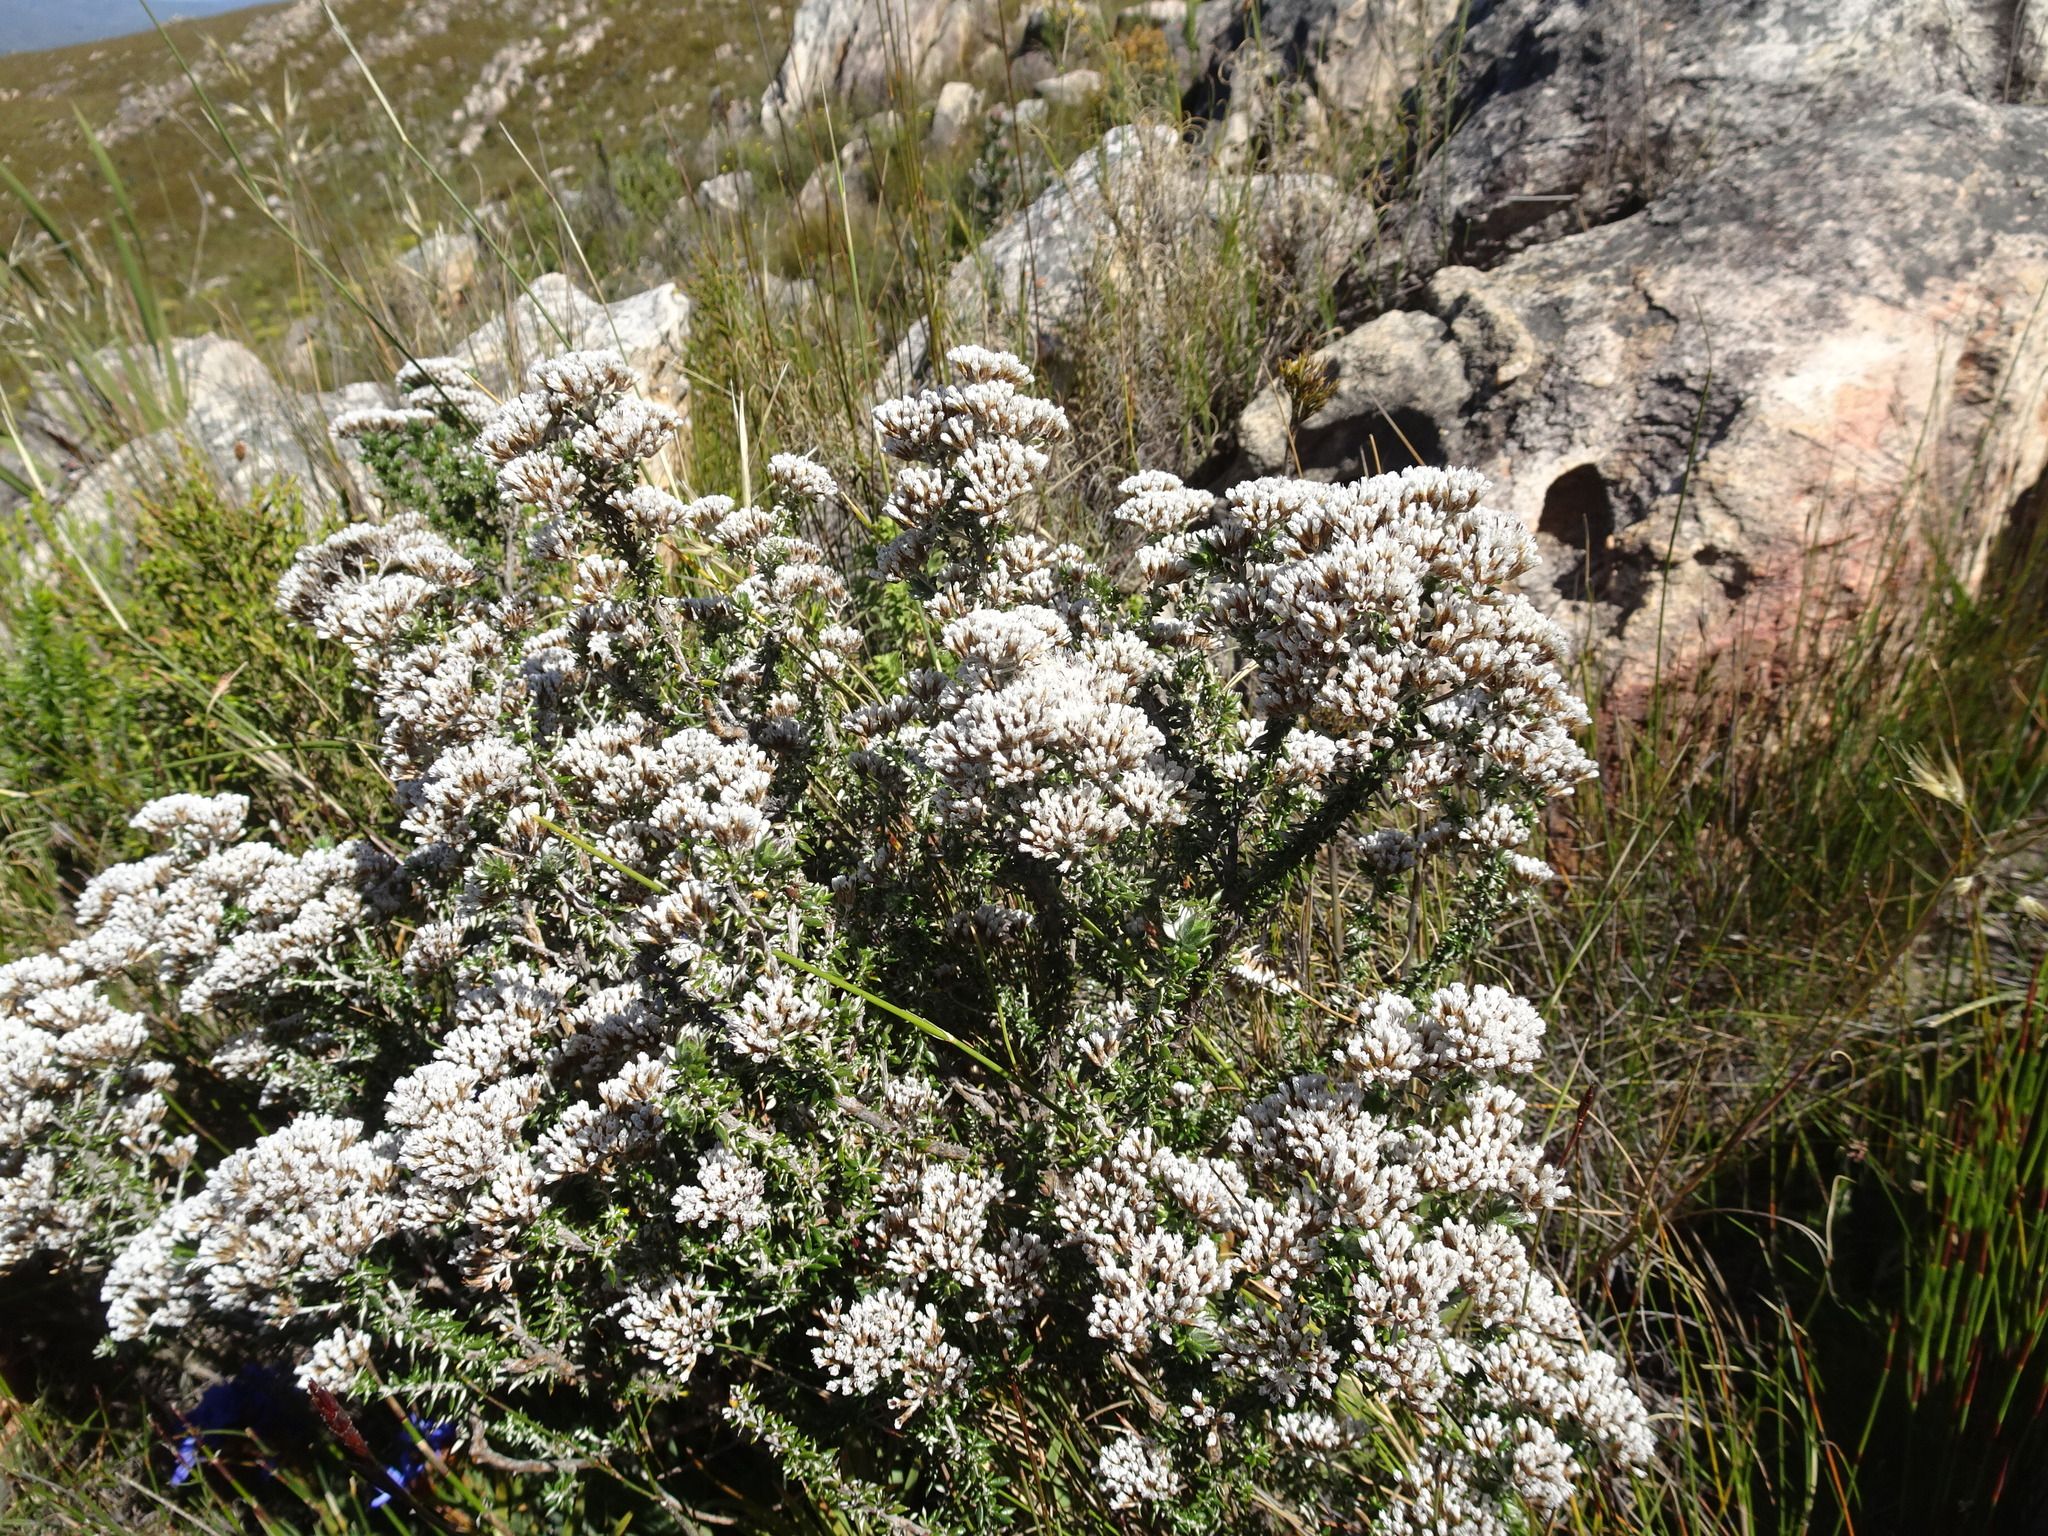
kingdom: Plantae
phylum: Tracheophyta
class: Magnoliopsida
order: Asterales
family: Asteraceae
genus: Metalasia
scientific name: Metalasia densa
